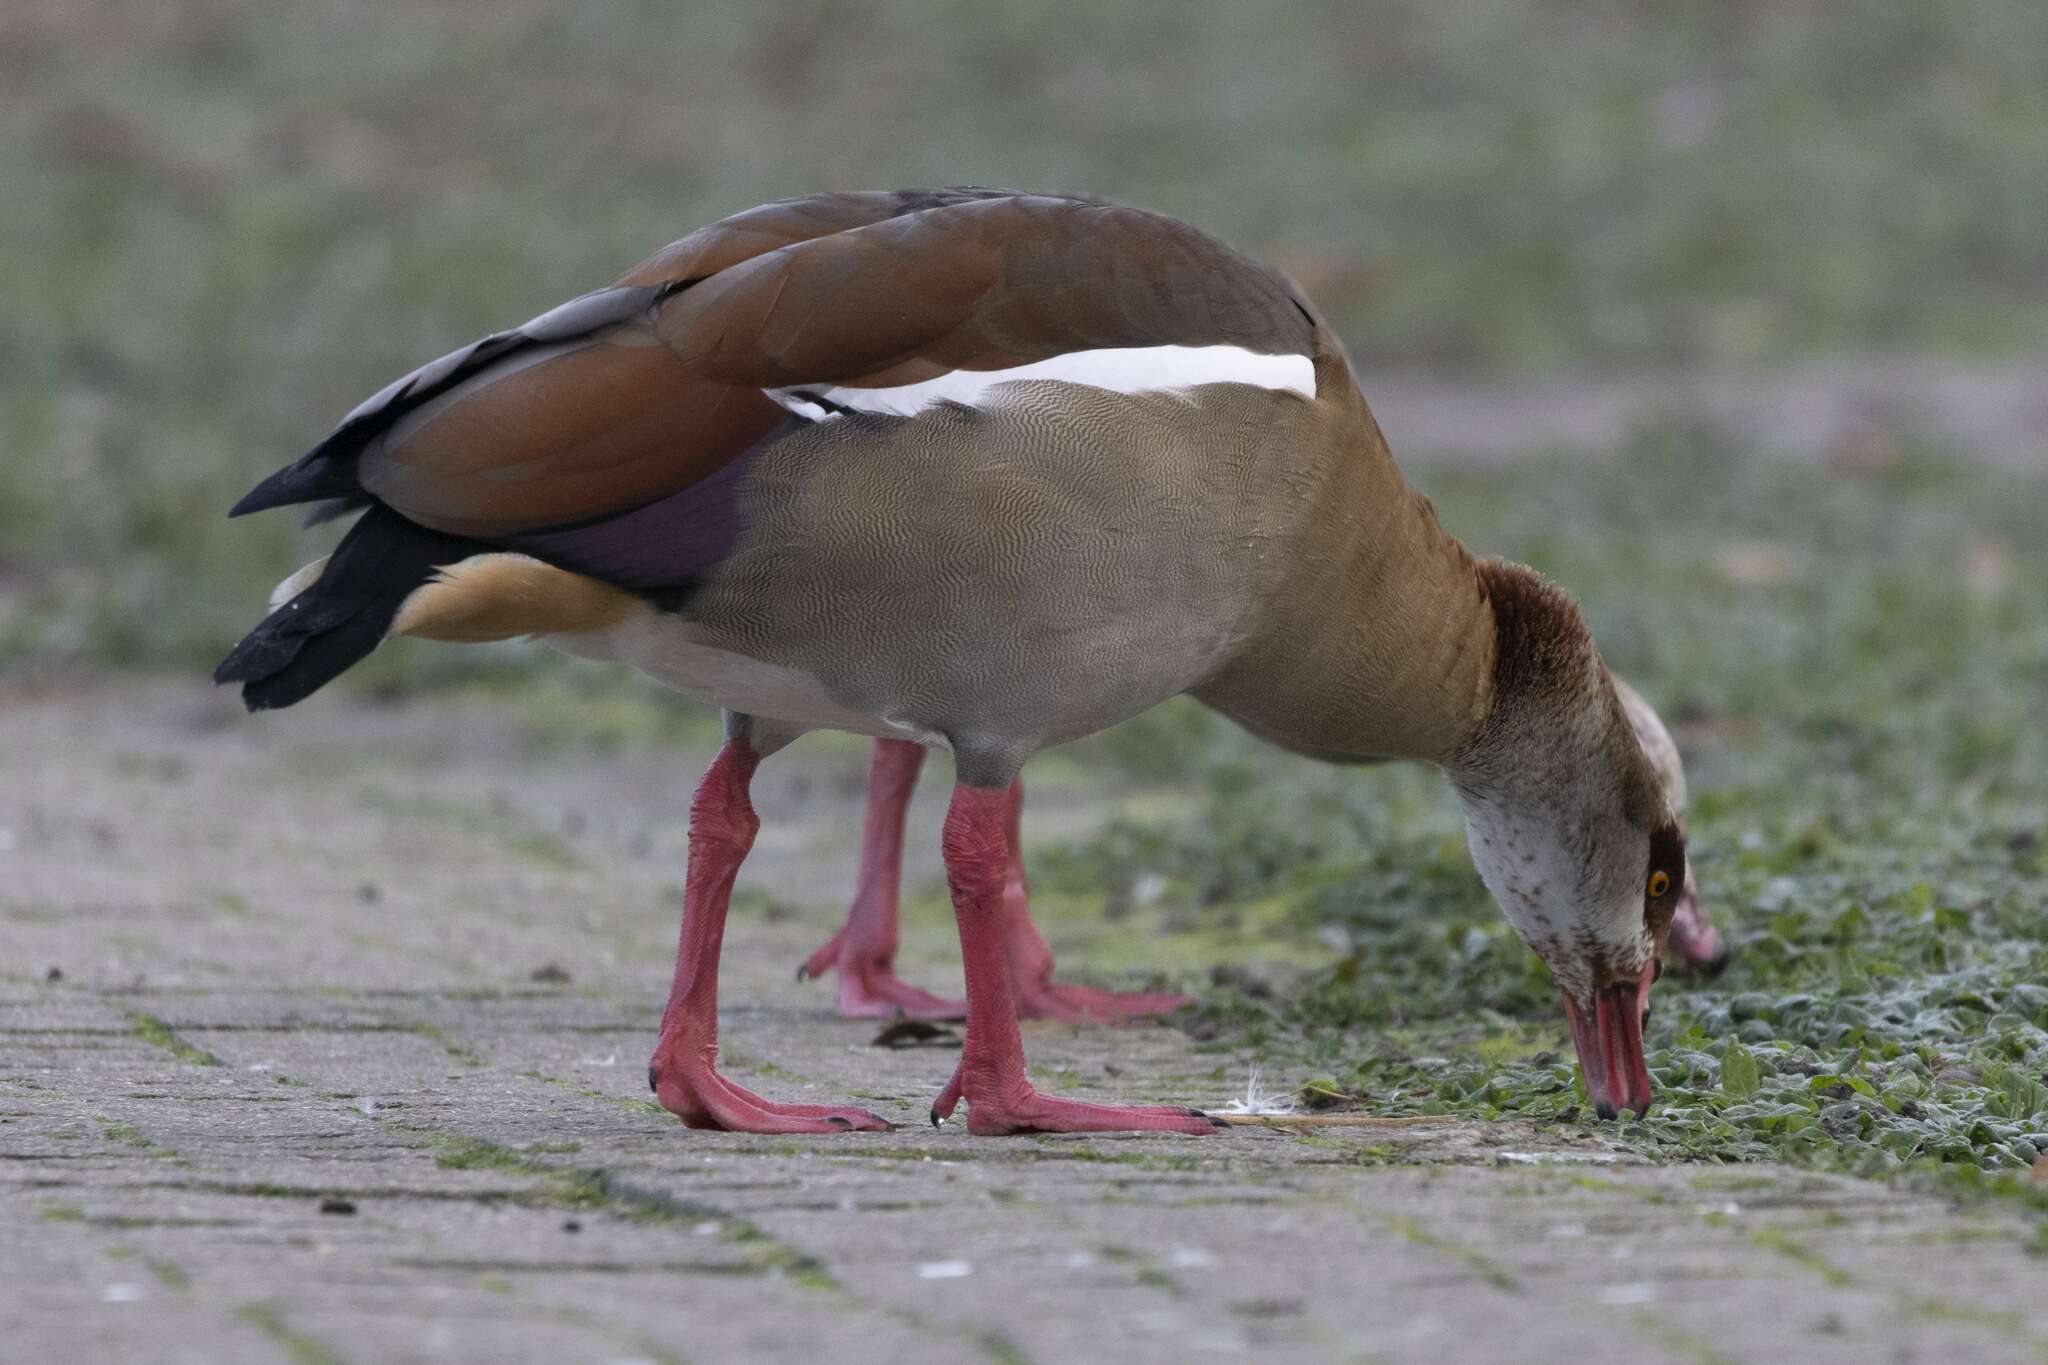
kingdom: Animalia
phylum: Chordata
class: Aves
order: Anseriformes
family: Anatidae
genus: Alopochen
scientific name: Alopochen aegyptiaca
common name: Egyptian goose
